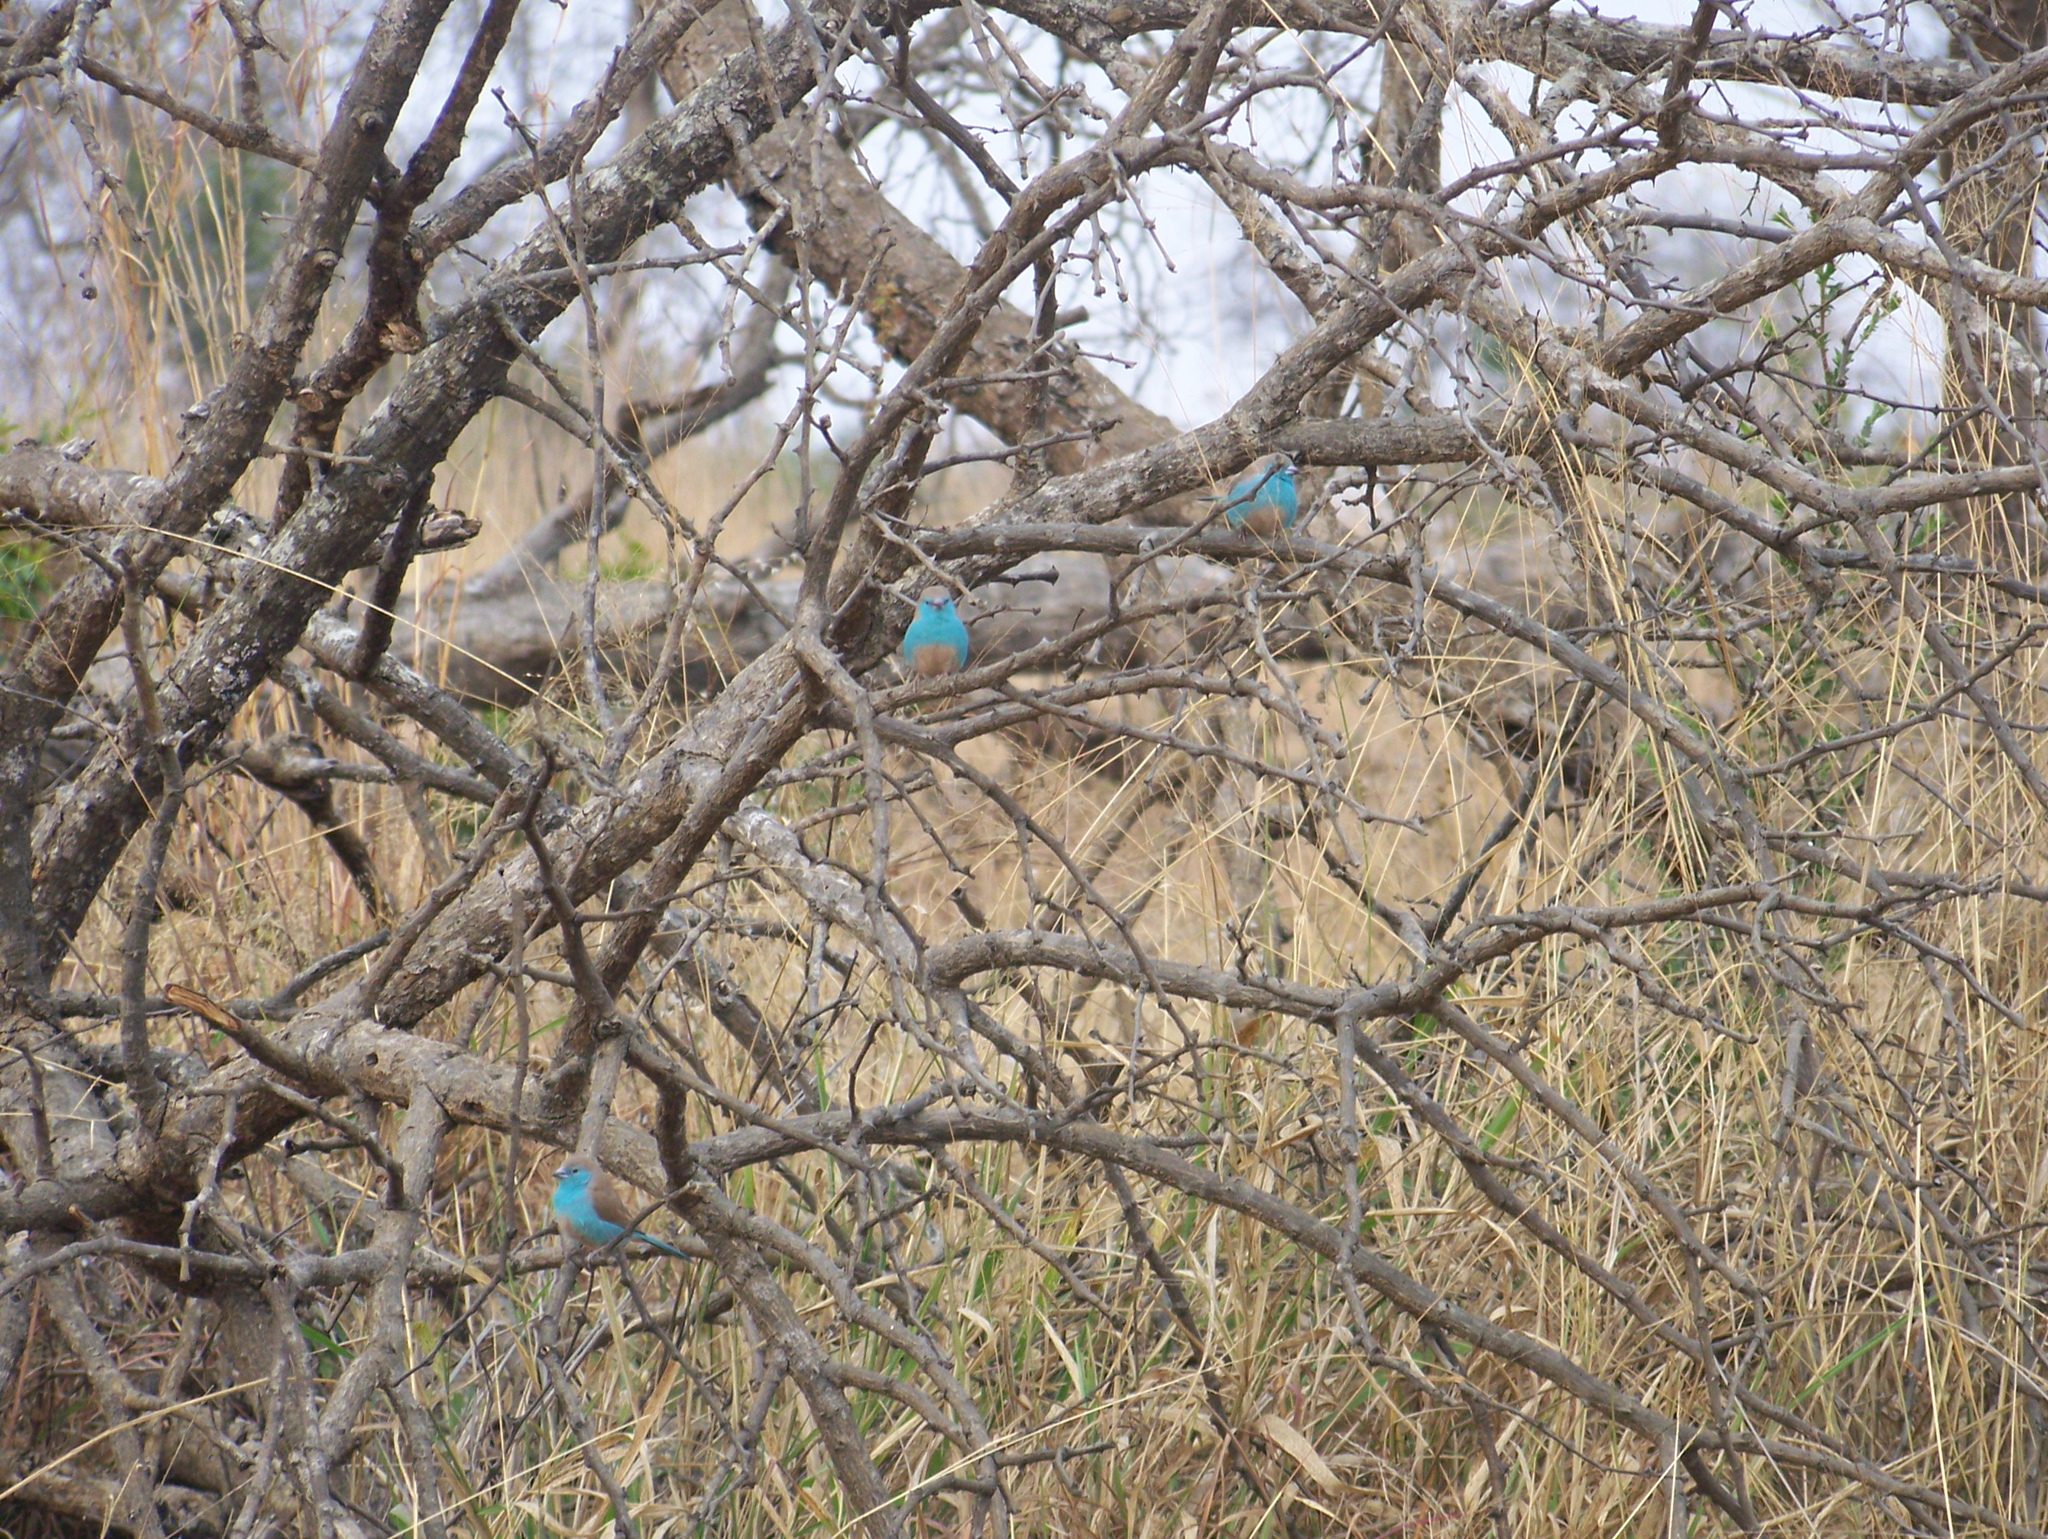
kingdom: Animalia
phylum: Chordata
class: Aves
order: Passeriformes
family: Estrildidae
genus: Uraeginthus
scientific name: Uraeginthus angolensis
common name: Blue waxbill
